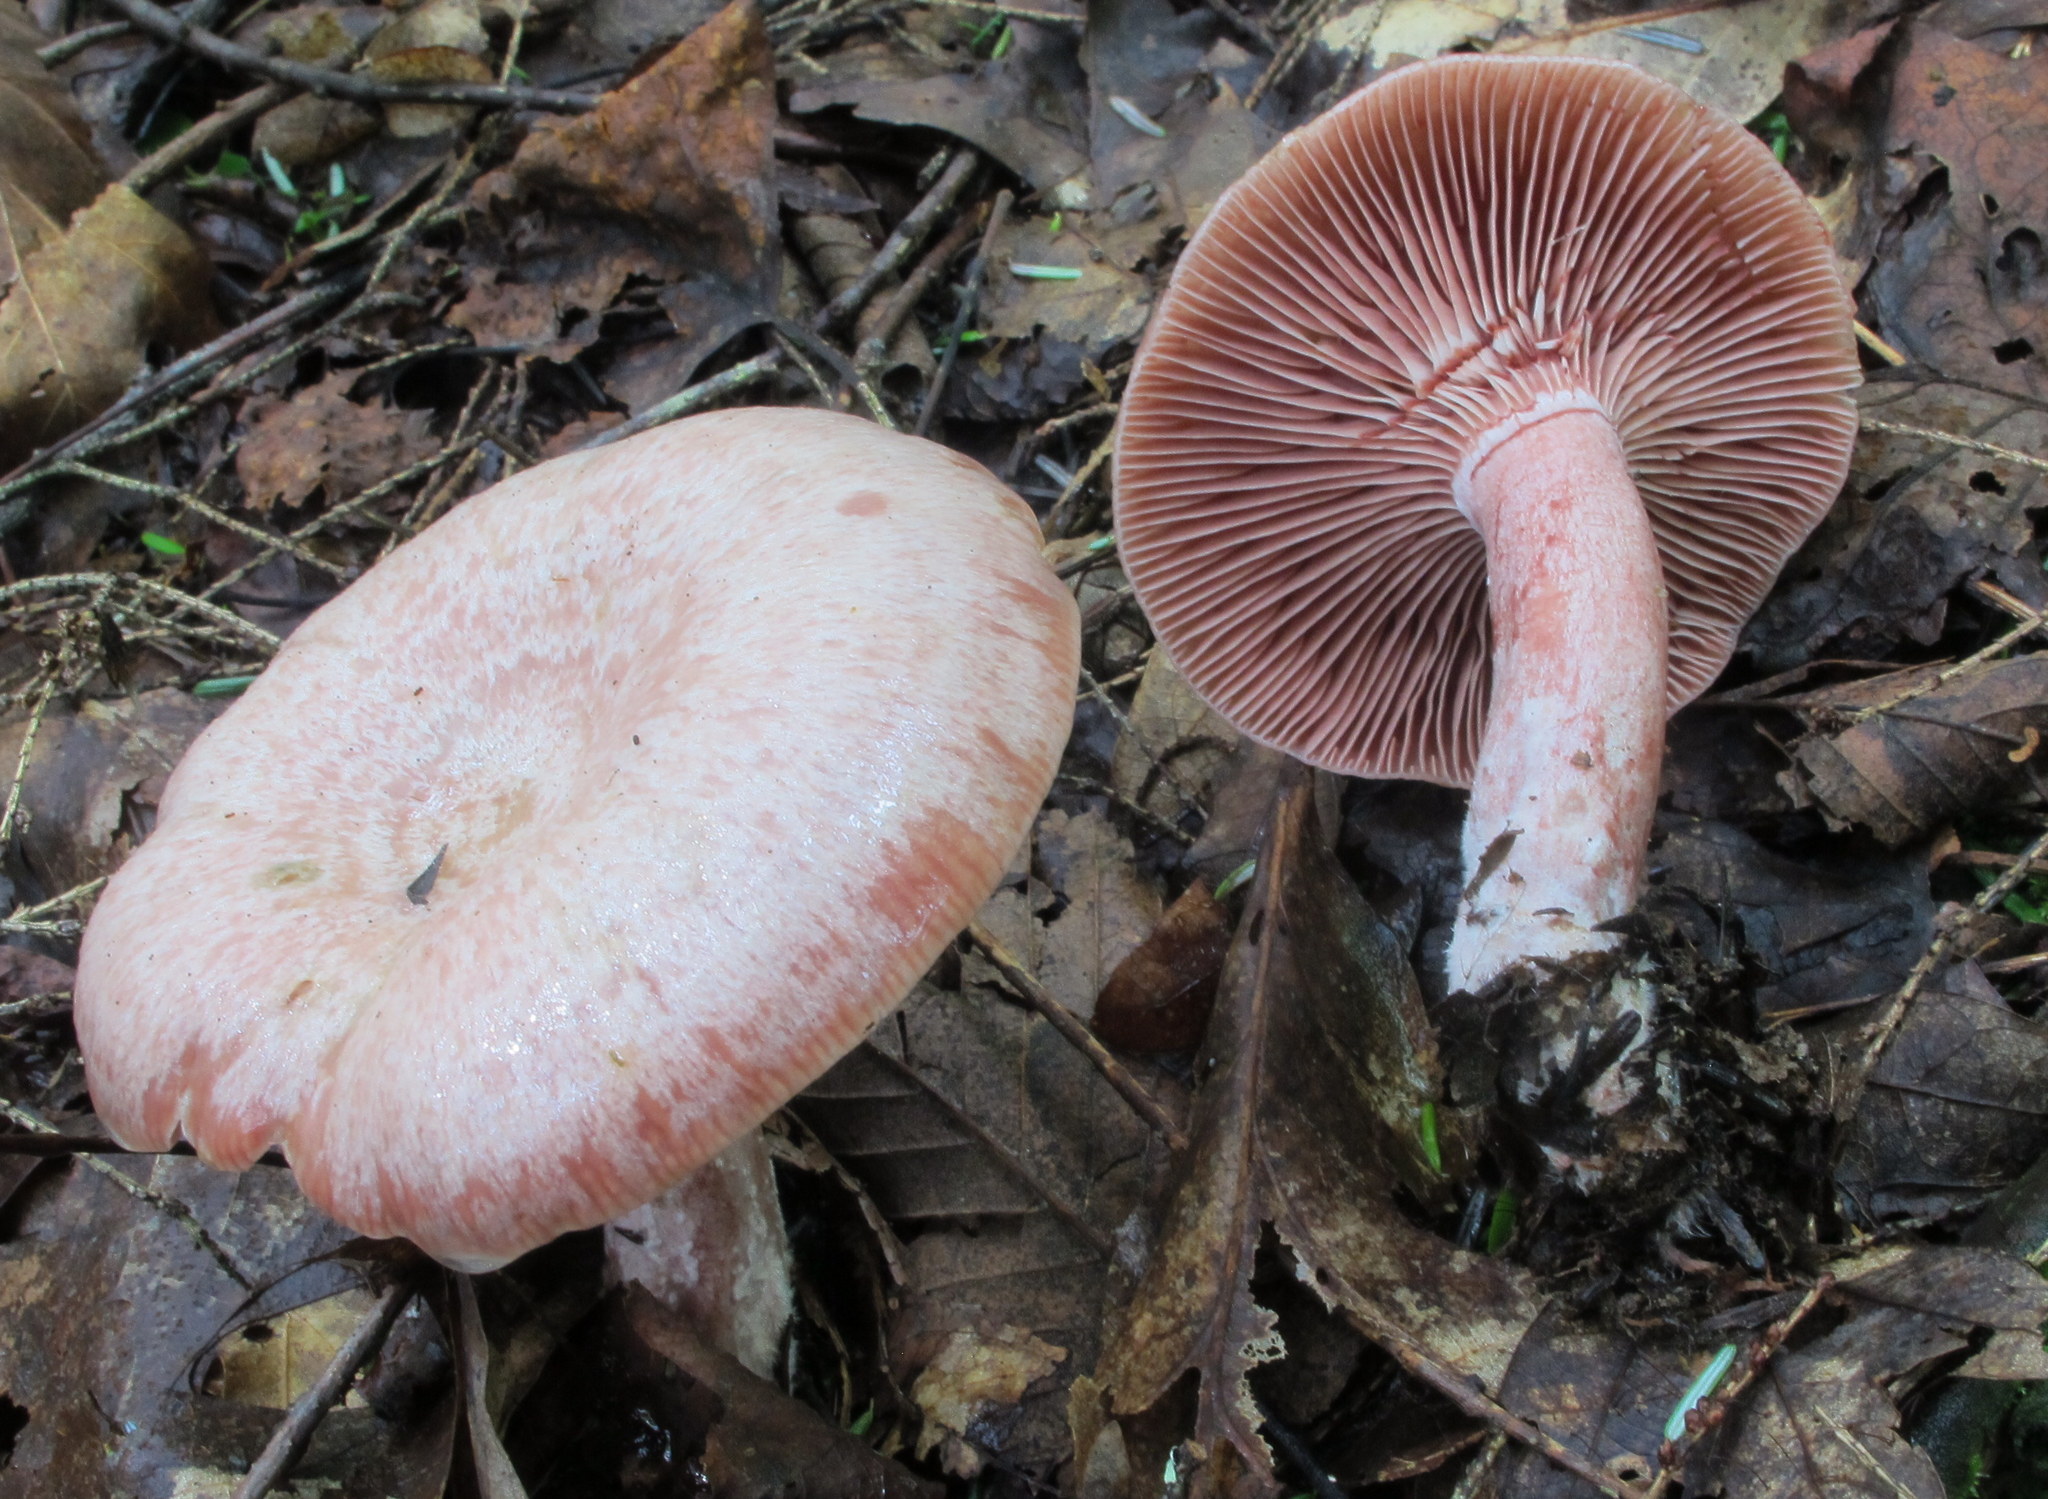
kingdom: Fungi
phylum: Basidiomycota
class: Agaricomycetes
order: Russulales
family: Russulaceae
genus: Lactarius
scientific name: Lactarius subpurpureus
